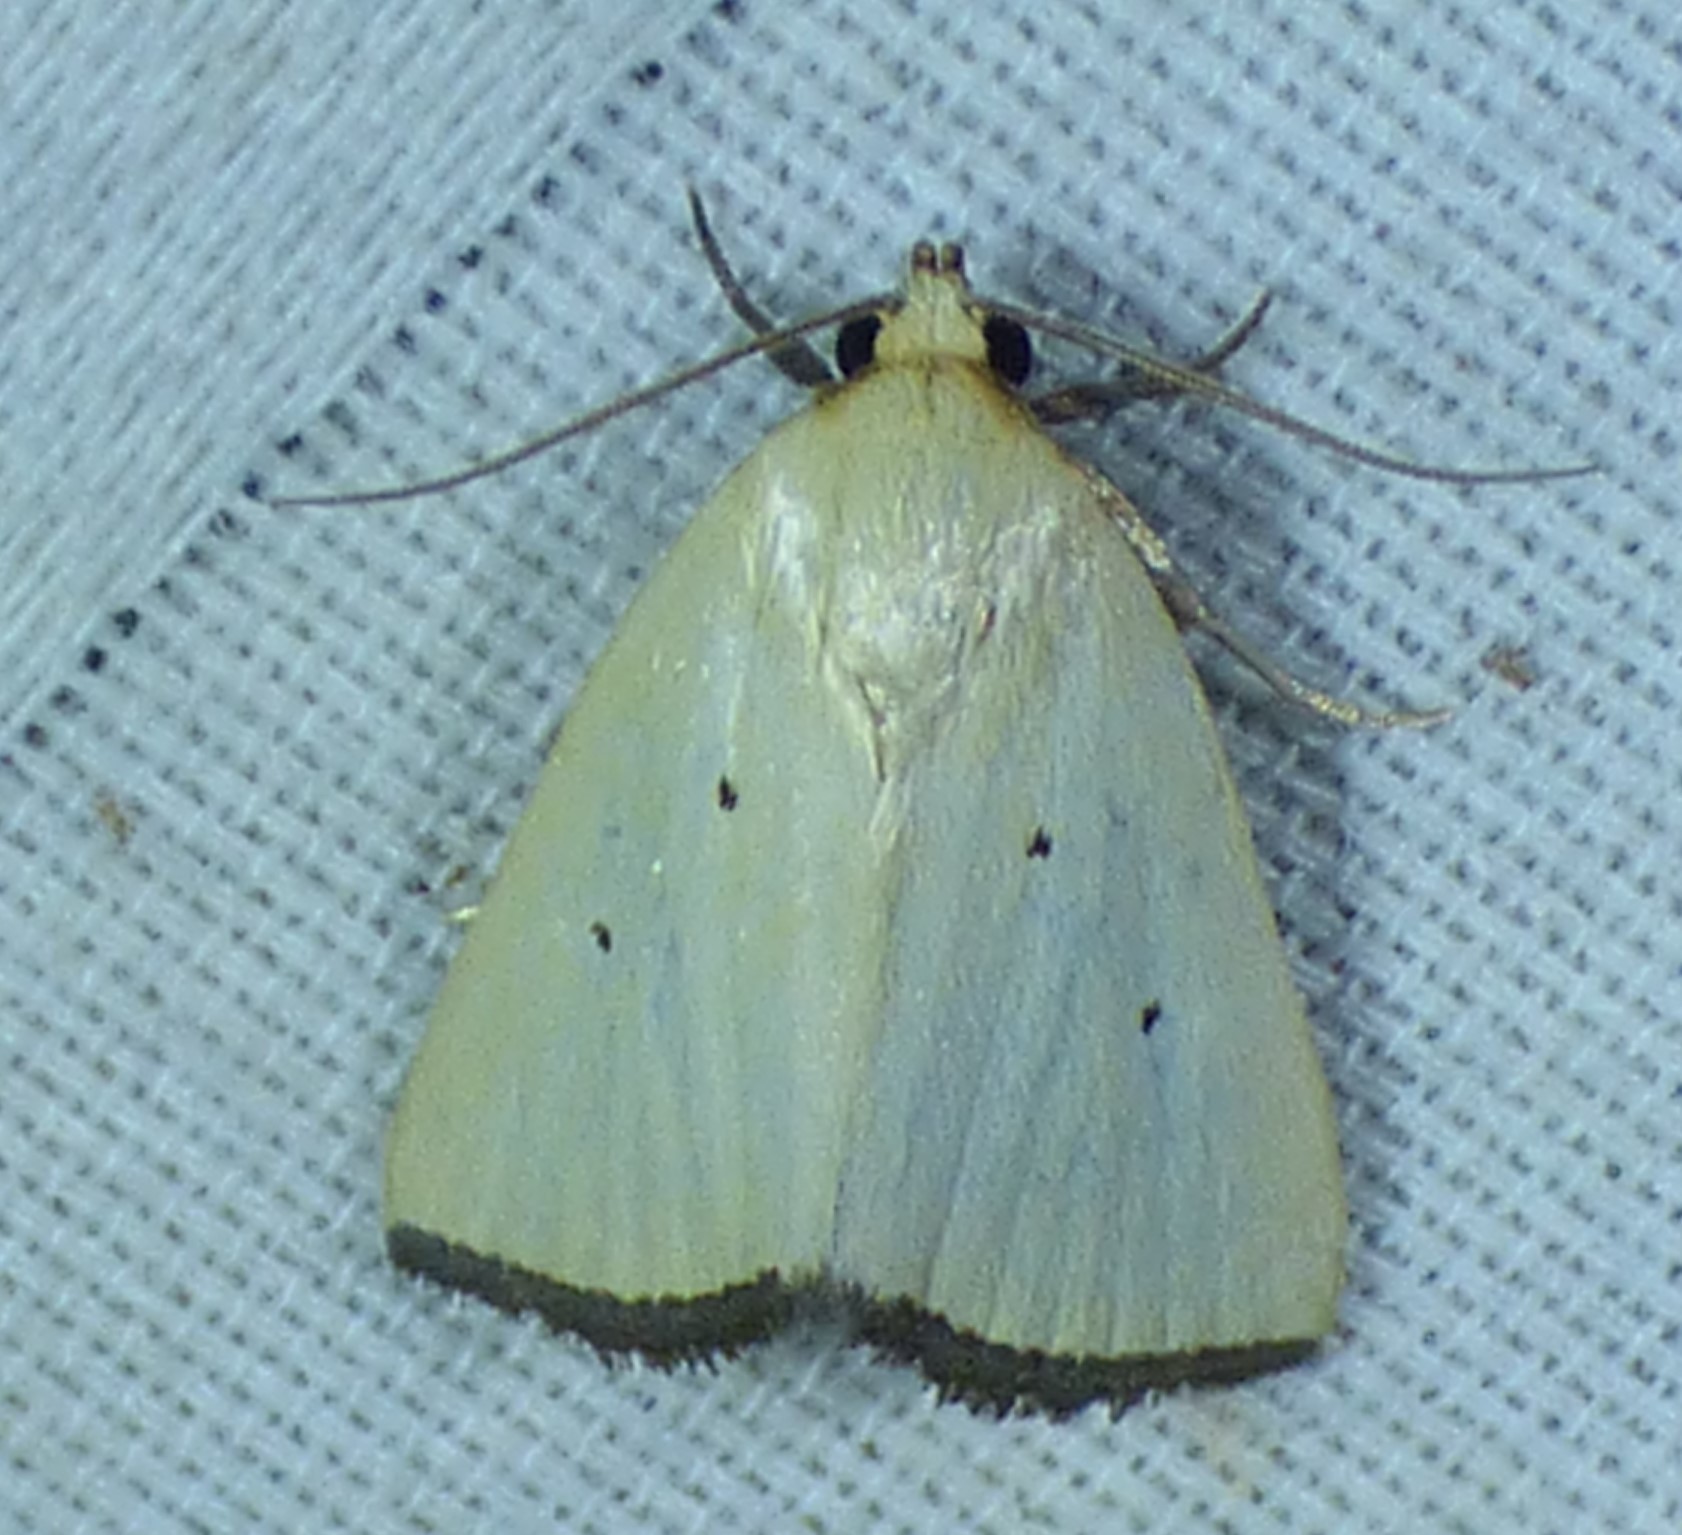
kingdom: Animalia
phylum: Arthropoda
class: Insecta
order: Lepidoptera
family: Noctuidae
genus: Marimatha
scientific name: Marimatha nigrofimbria
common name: Black-bordered lemon moth
